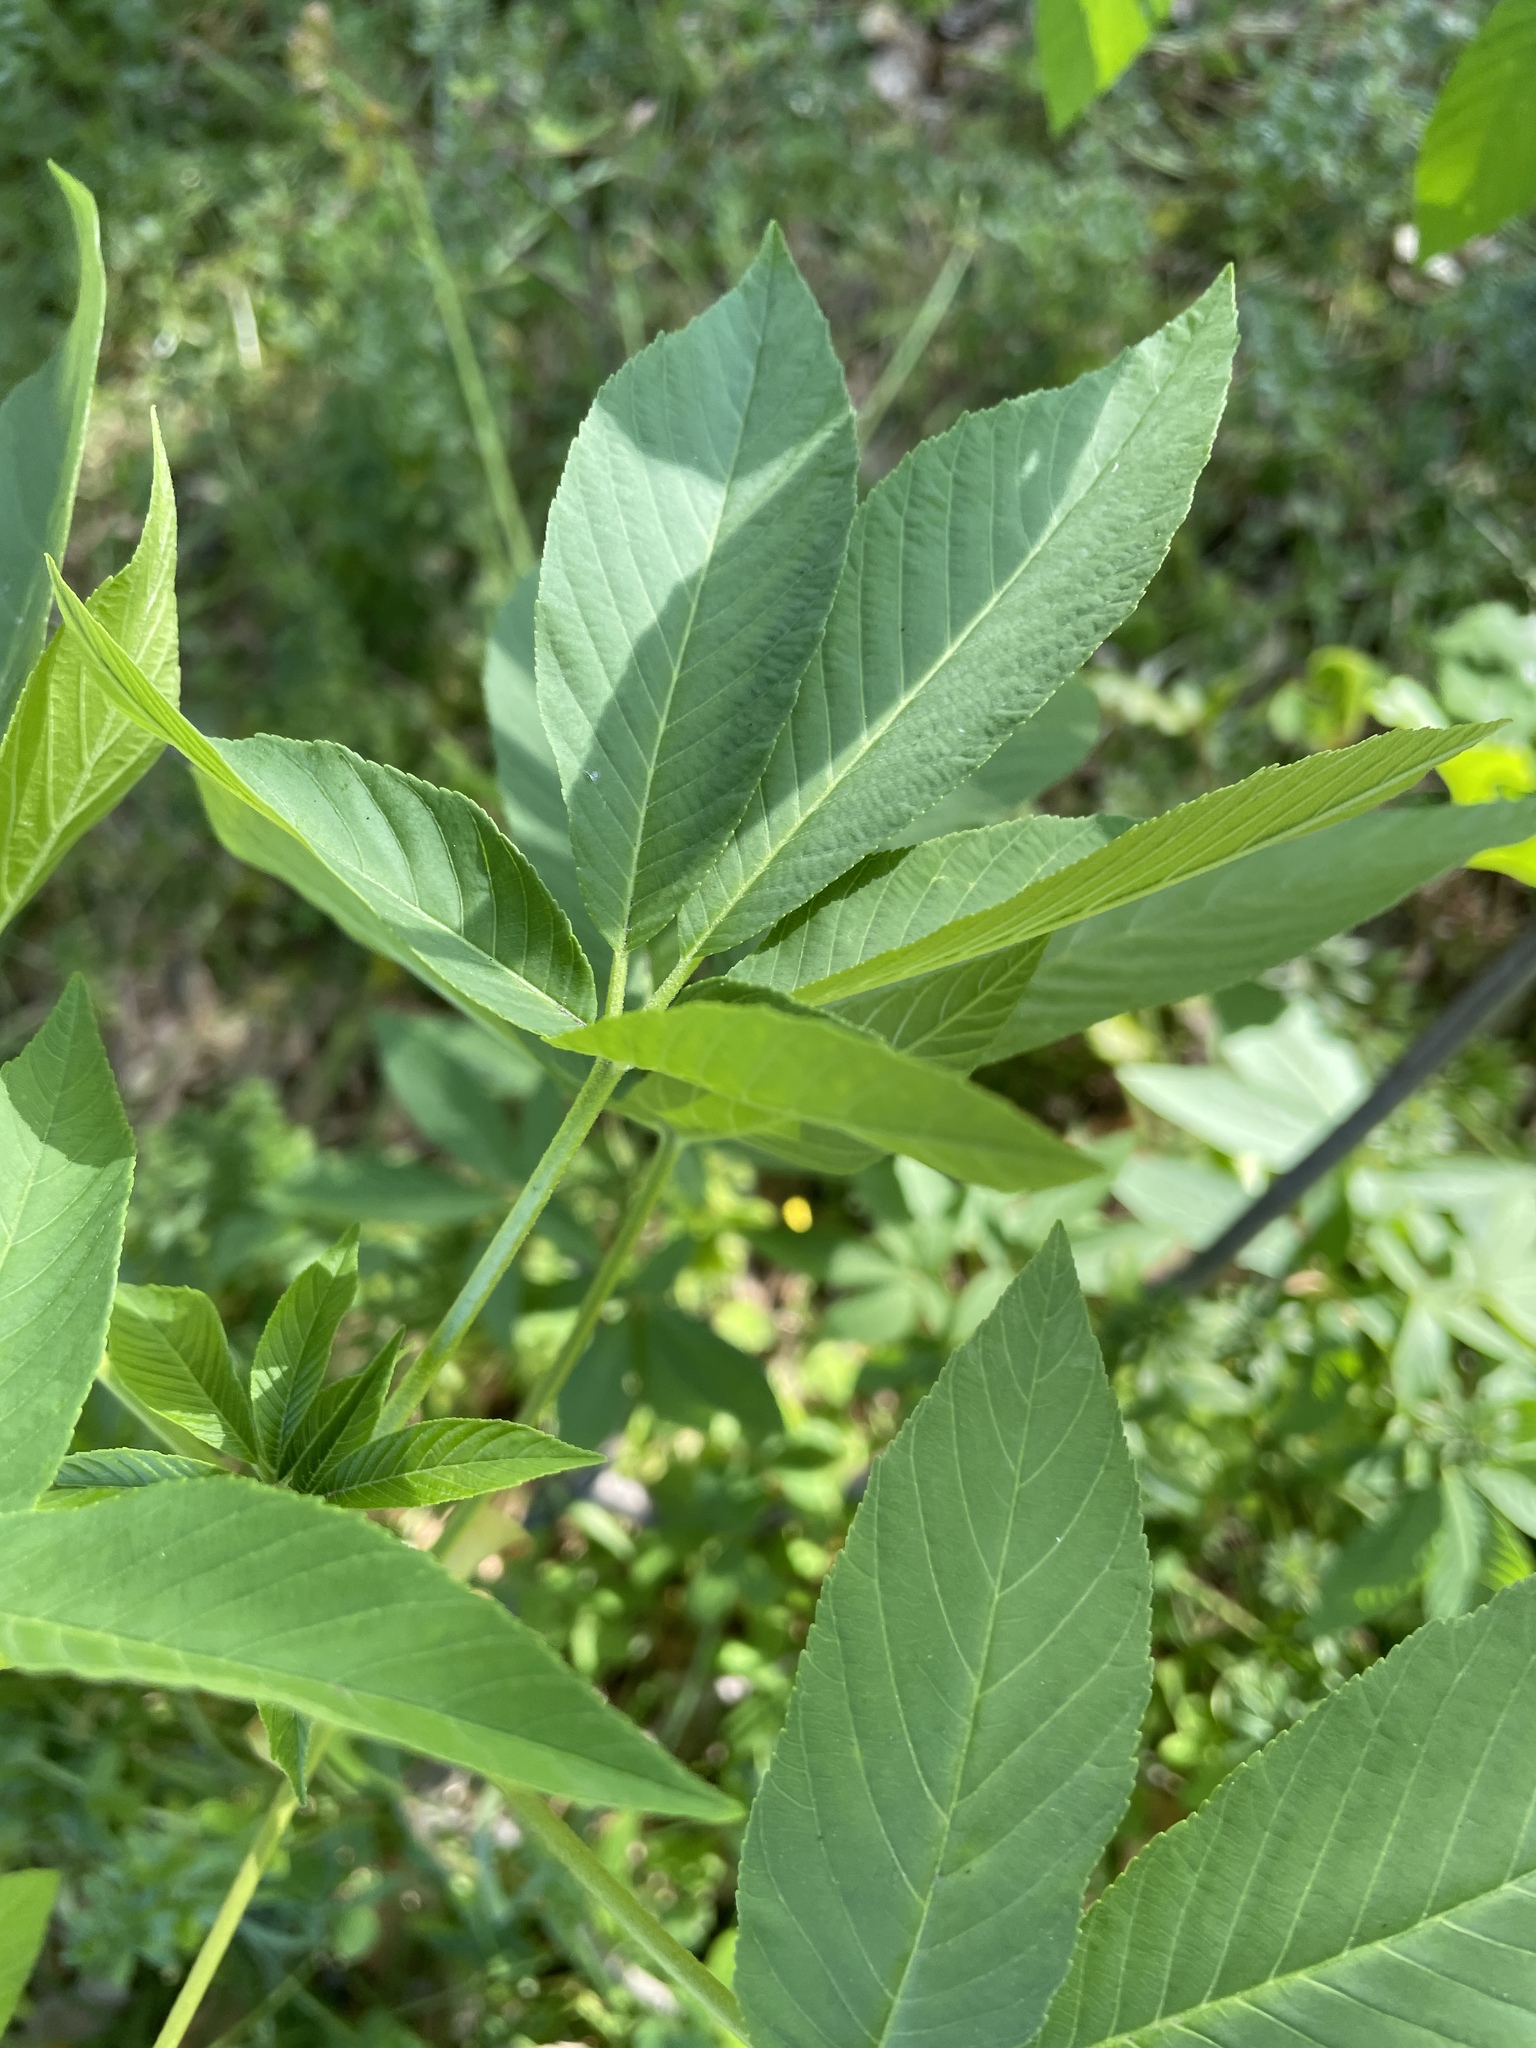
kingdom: Plantae
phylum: Tracheophyta
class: Magnoliopsida
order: Sapindales
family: Sapindaceae
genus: Aesculus
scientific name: Aesculus californica
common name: California buckeye
